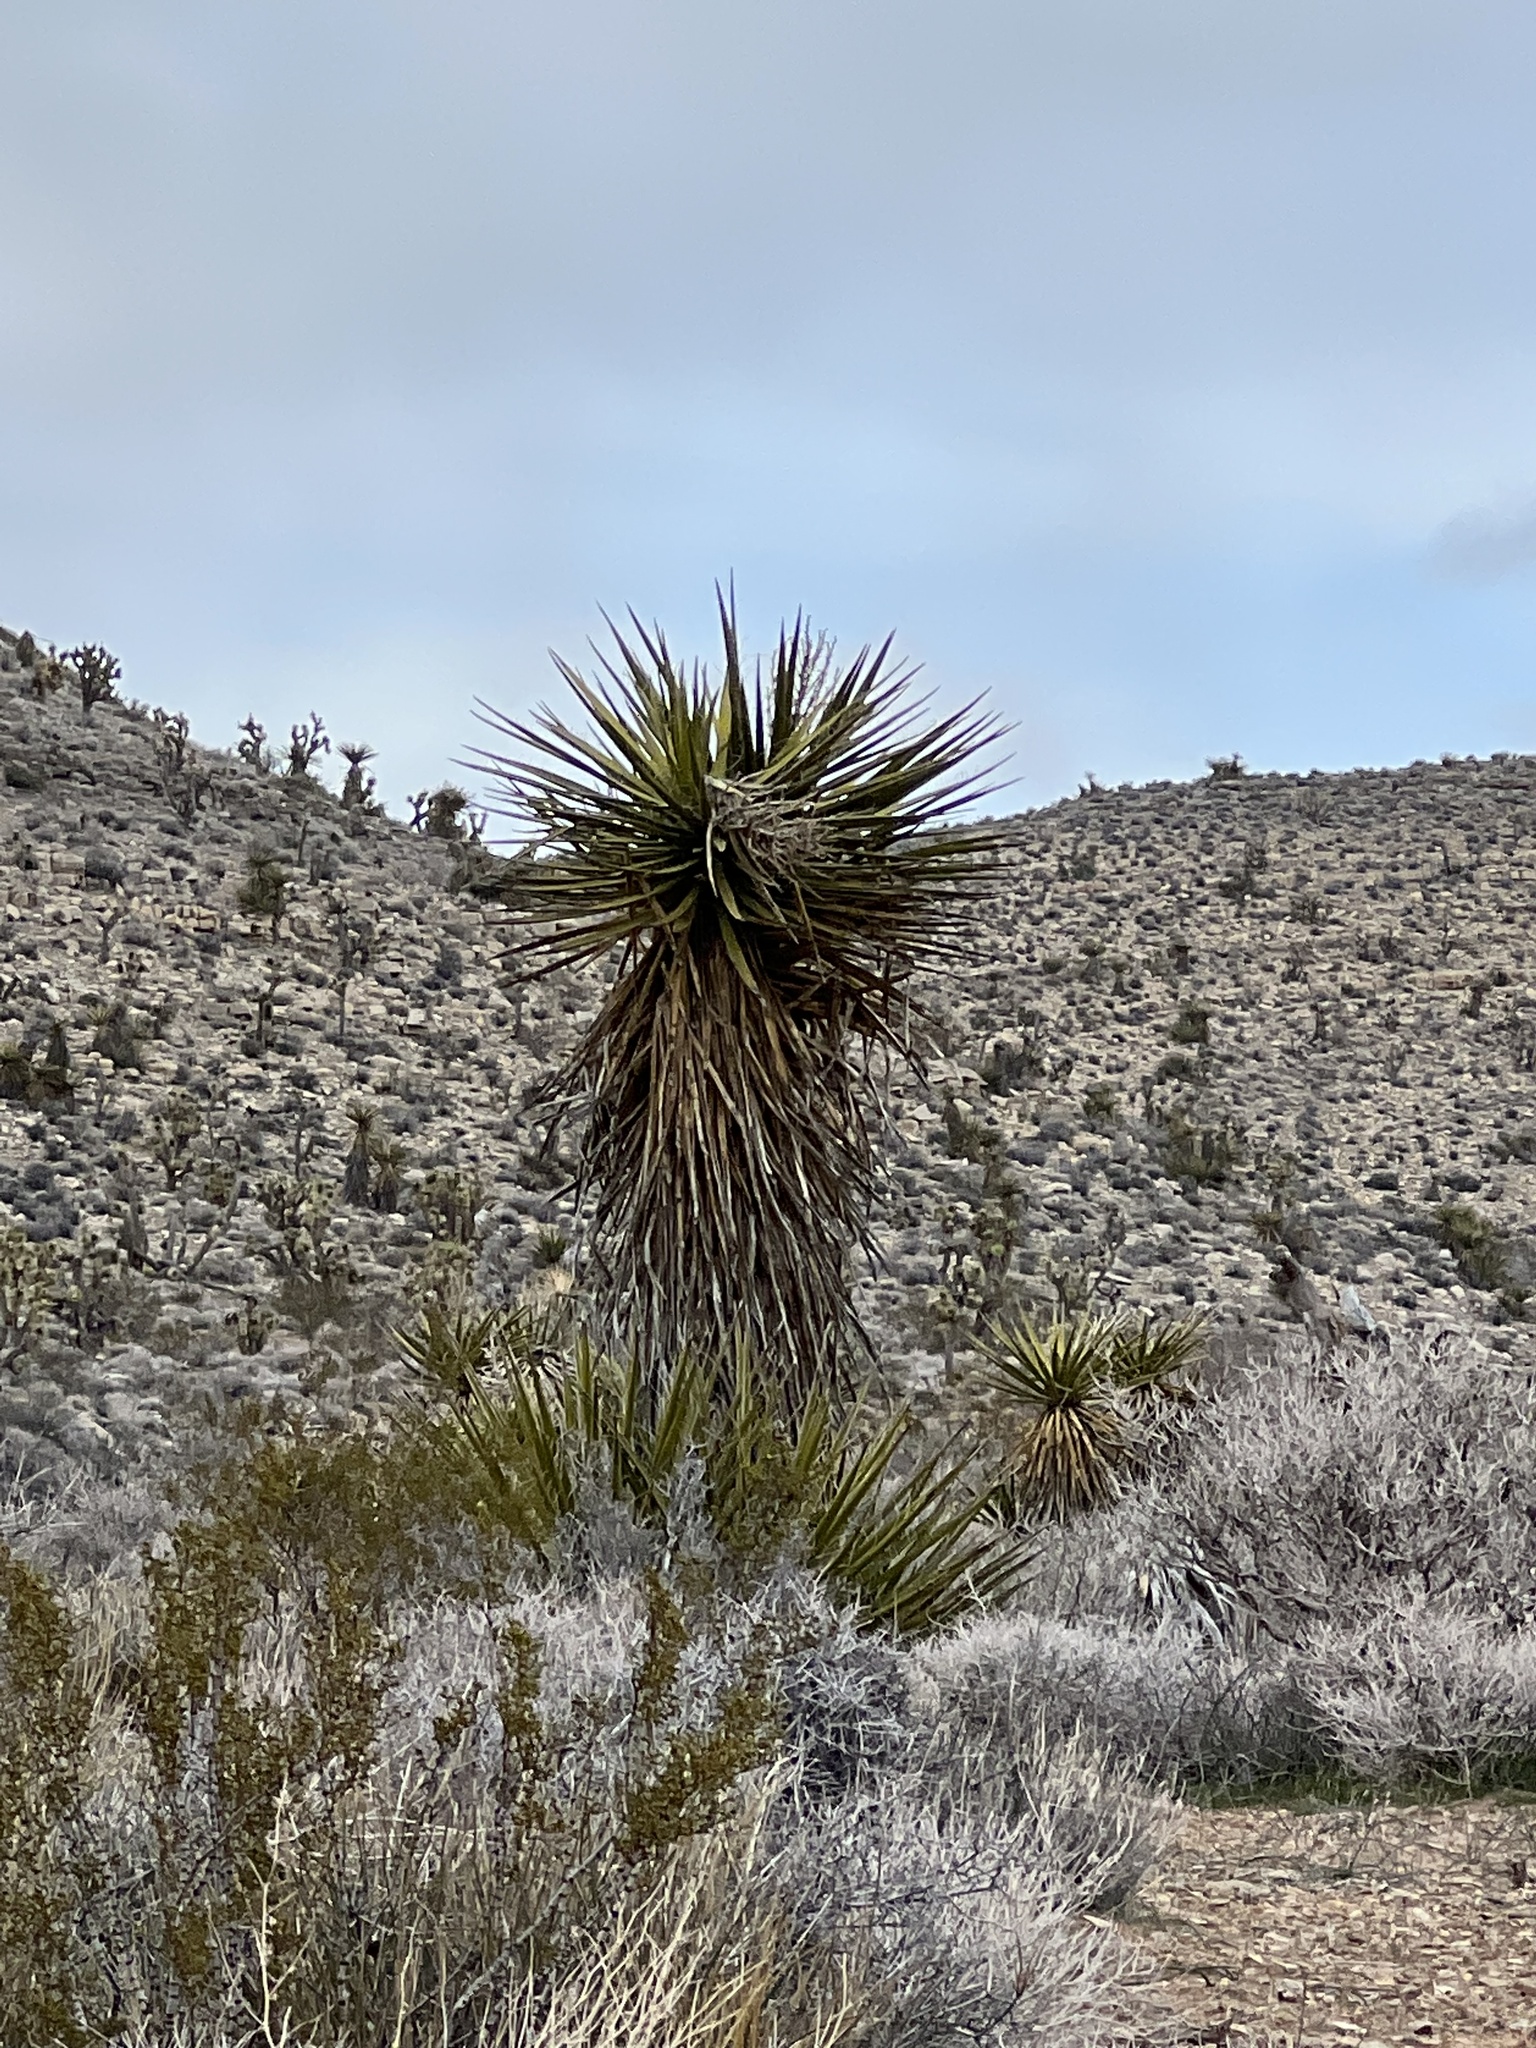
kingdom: Plantae
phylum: Tracheophyta
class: Liliopsida
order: Asparagales
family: Asparagaceae
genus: Yucca
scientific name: Yucca schidigera
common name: Mojave yucca
